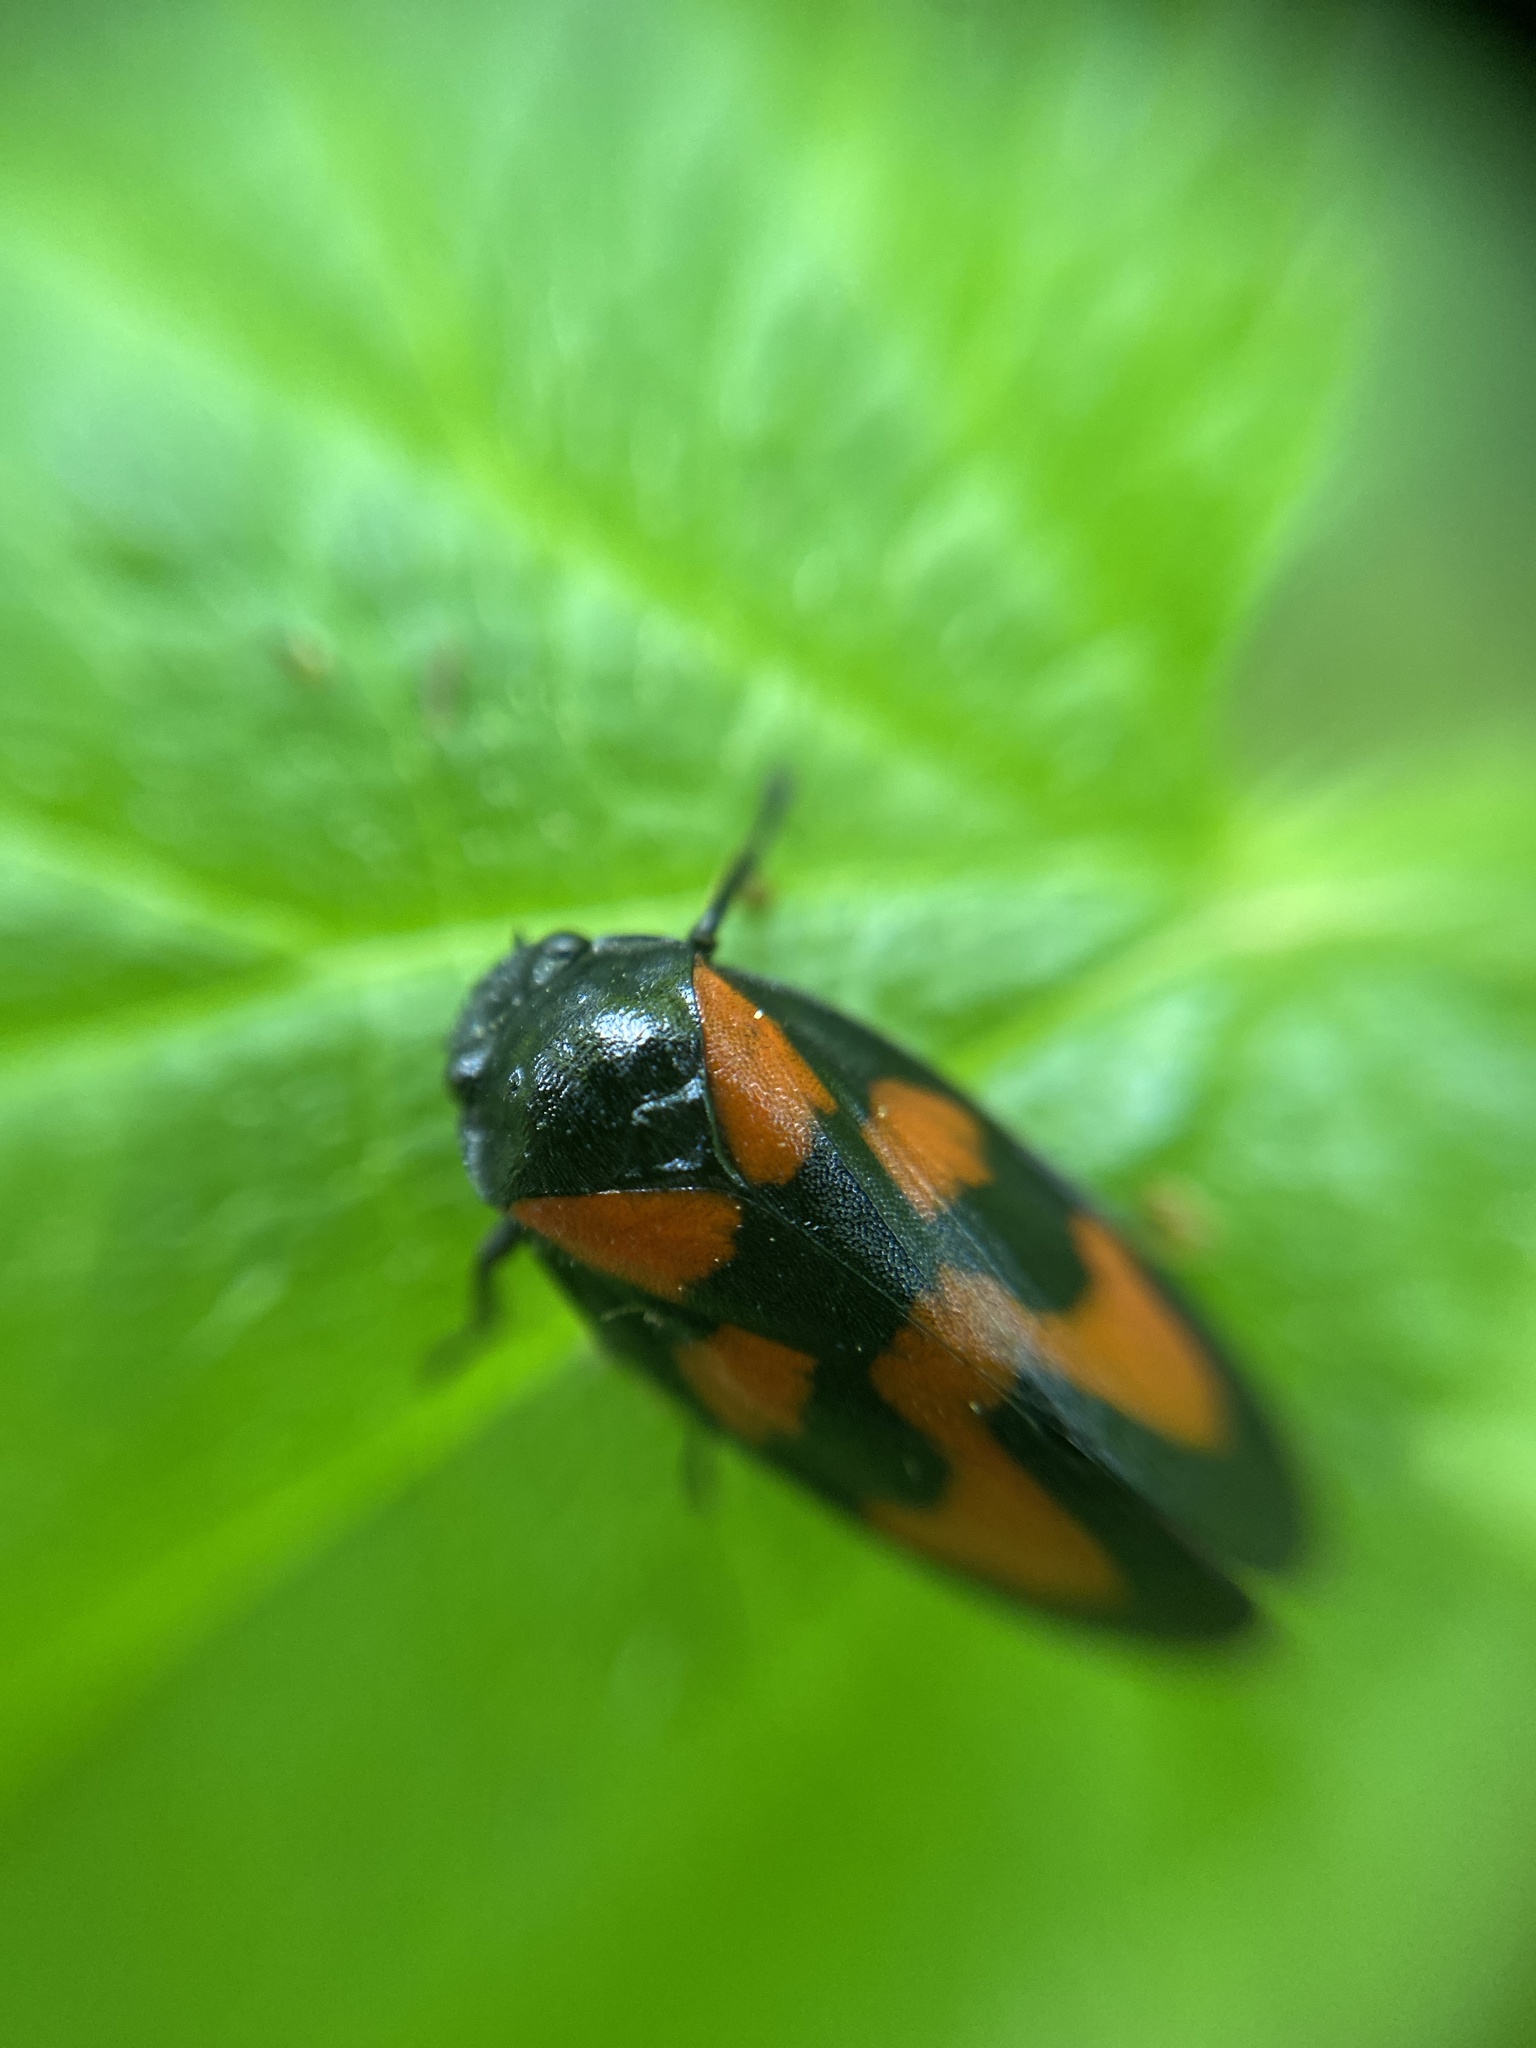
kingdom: Animalia
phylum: Arthropoda
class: Insecta
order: Hemiptera
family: Cercopidae
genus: Cercopis
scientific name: Cercopis vulnerata
